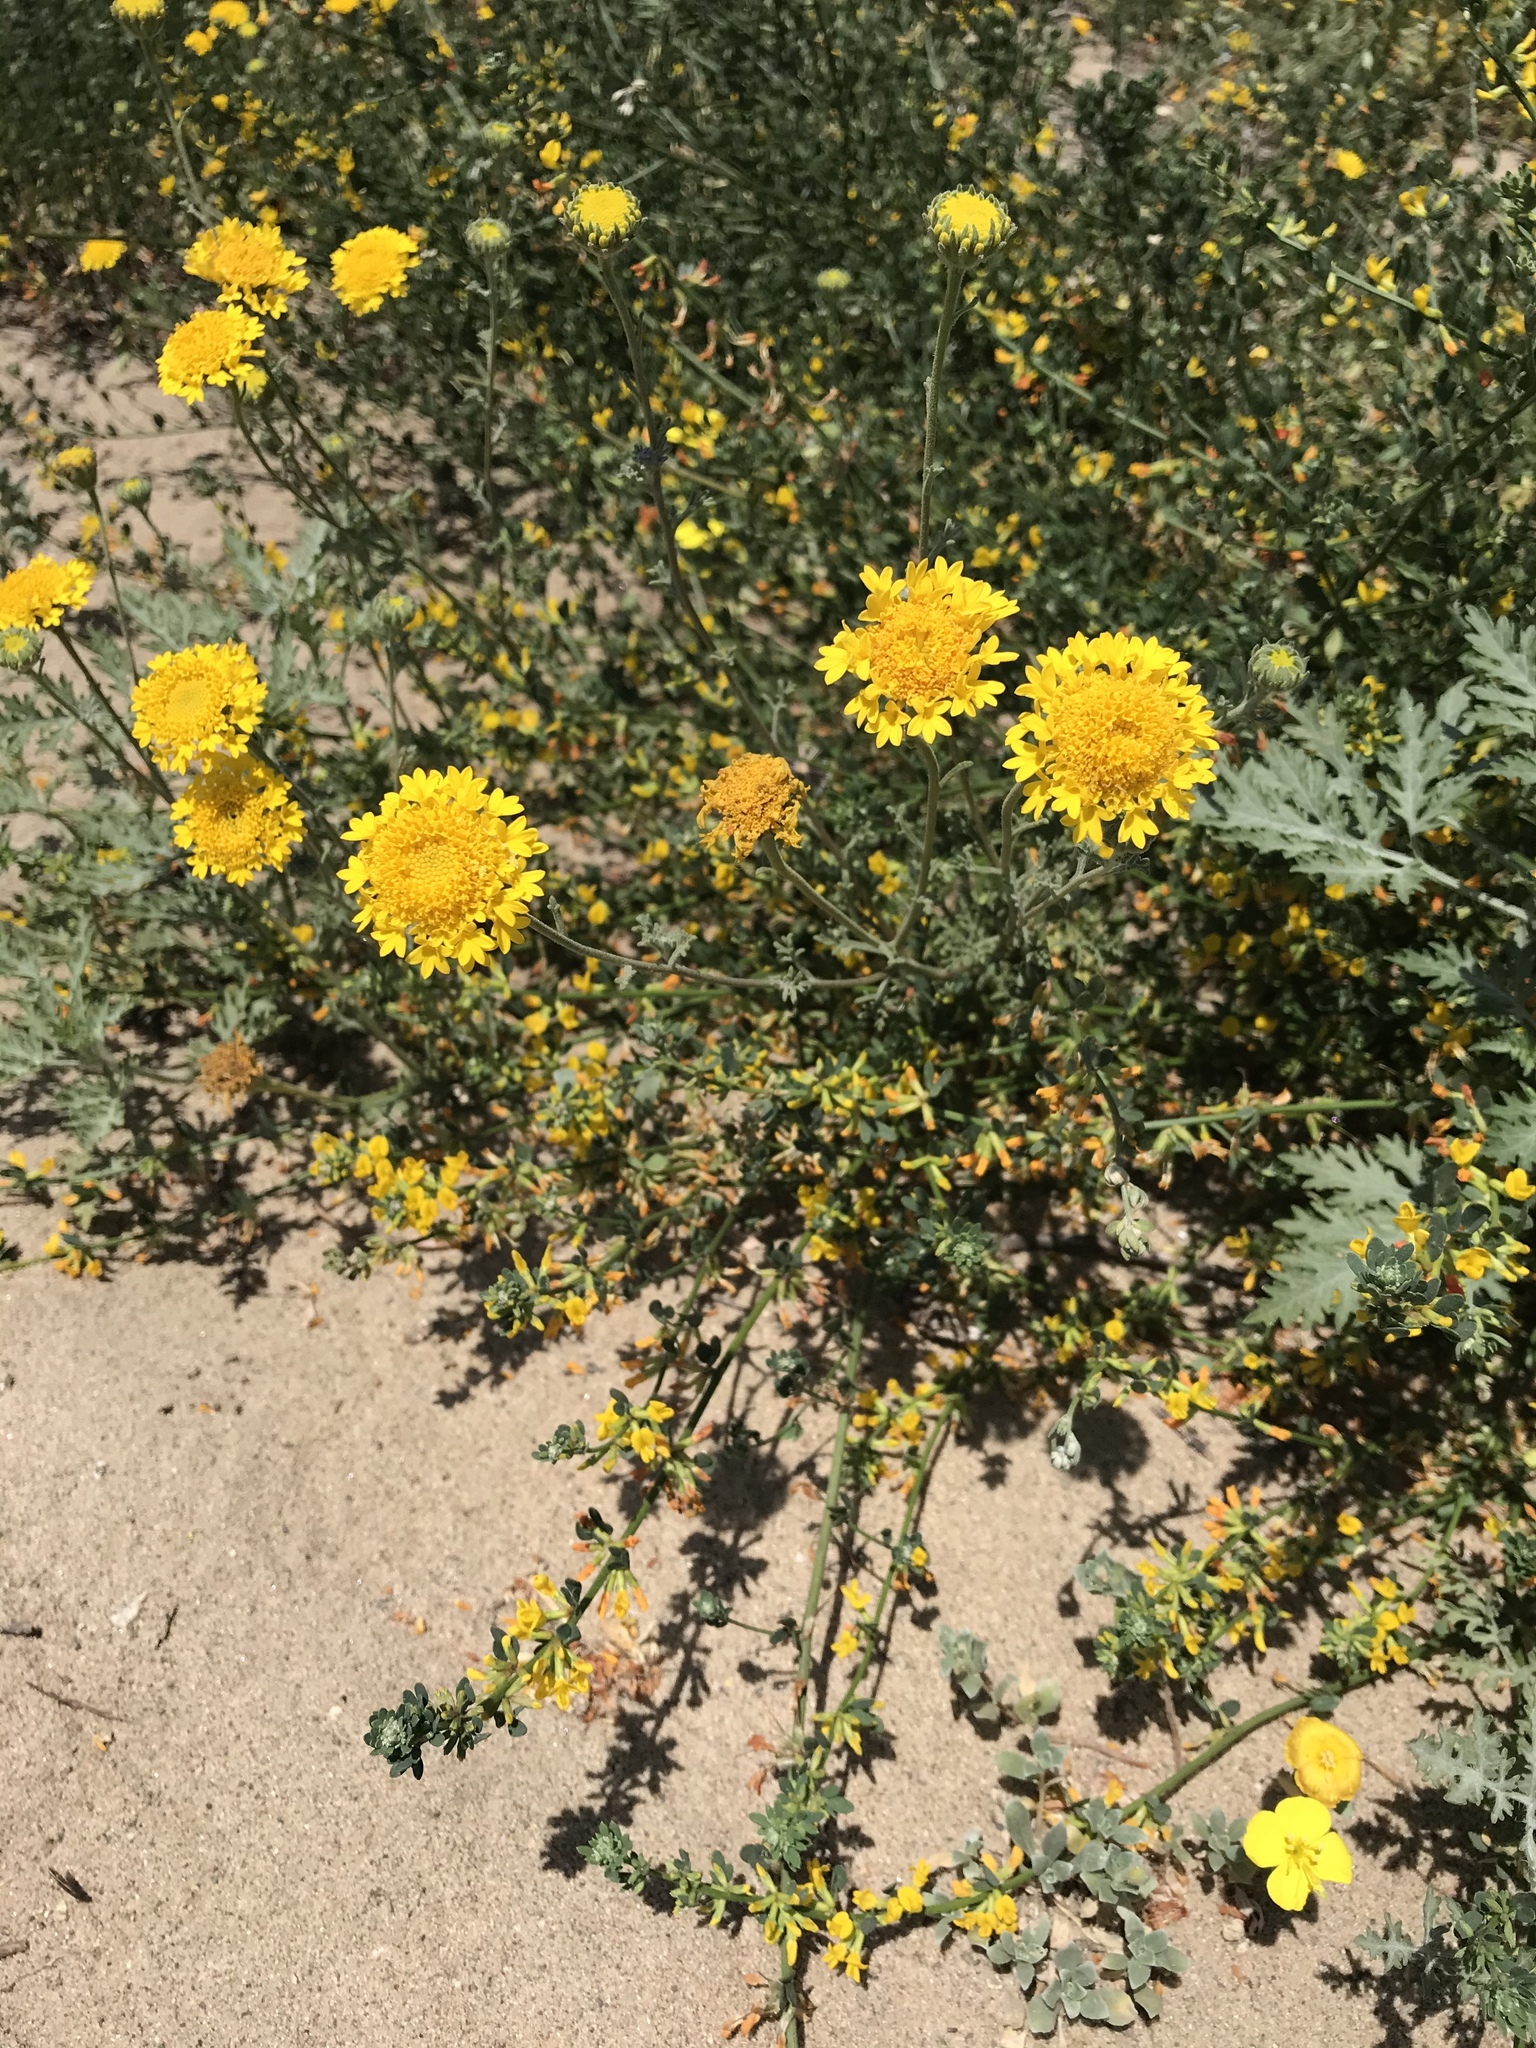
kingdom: Plantae
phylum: Tracheophyta
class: Magnoliopsida
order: Asterales
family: Asteraceae
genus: Chaenactis
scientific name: Chaenactis glabriuscula
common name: Yellow pincushion
